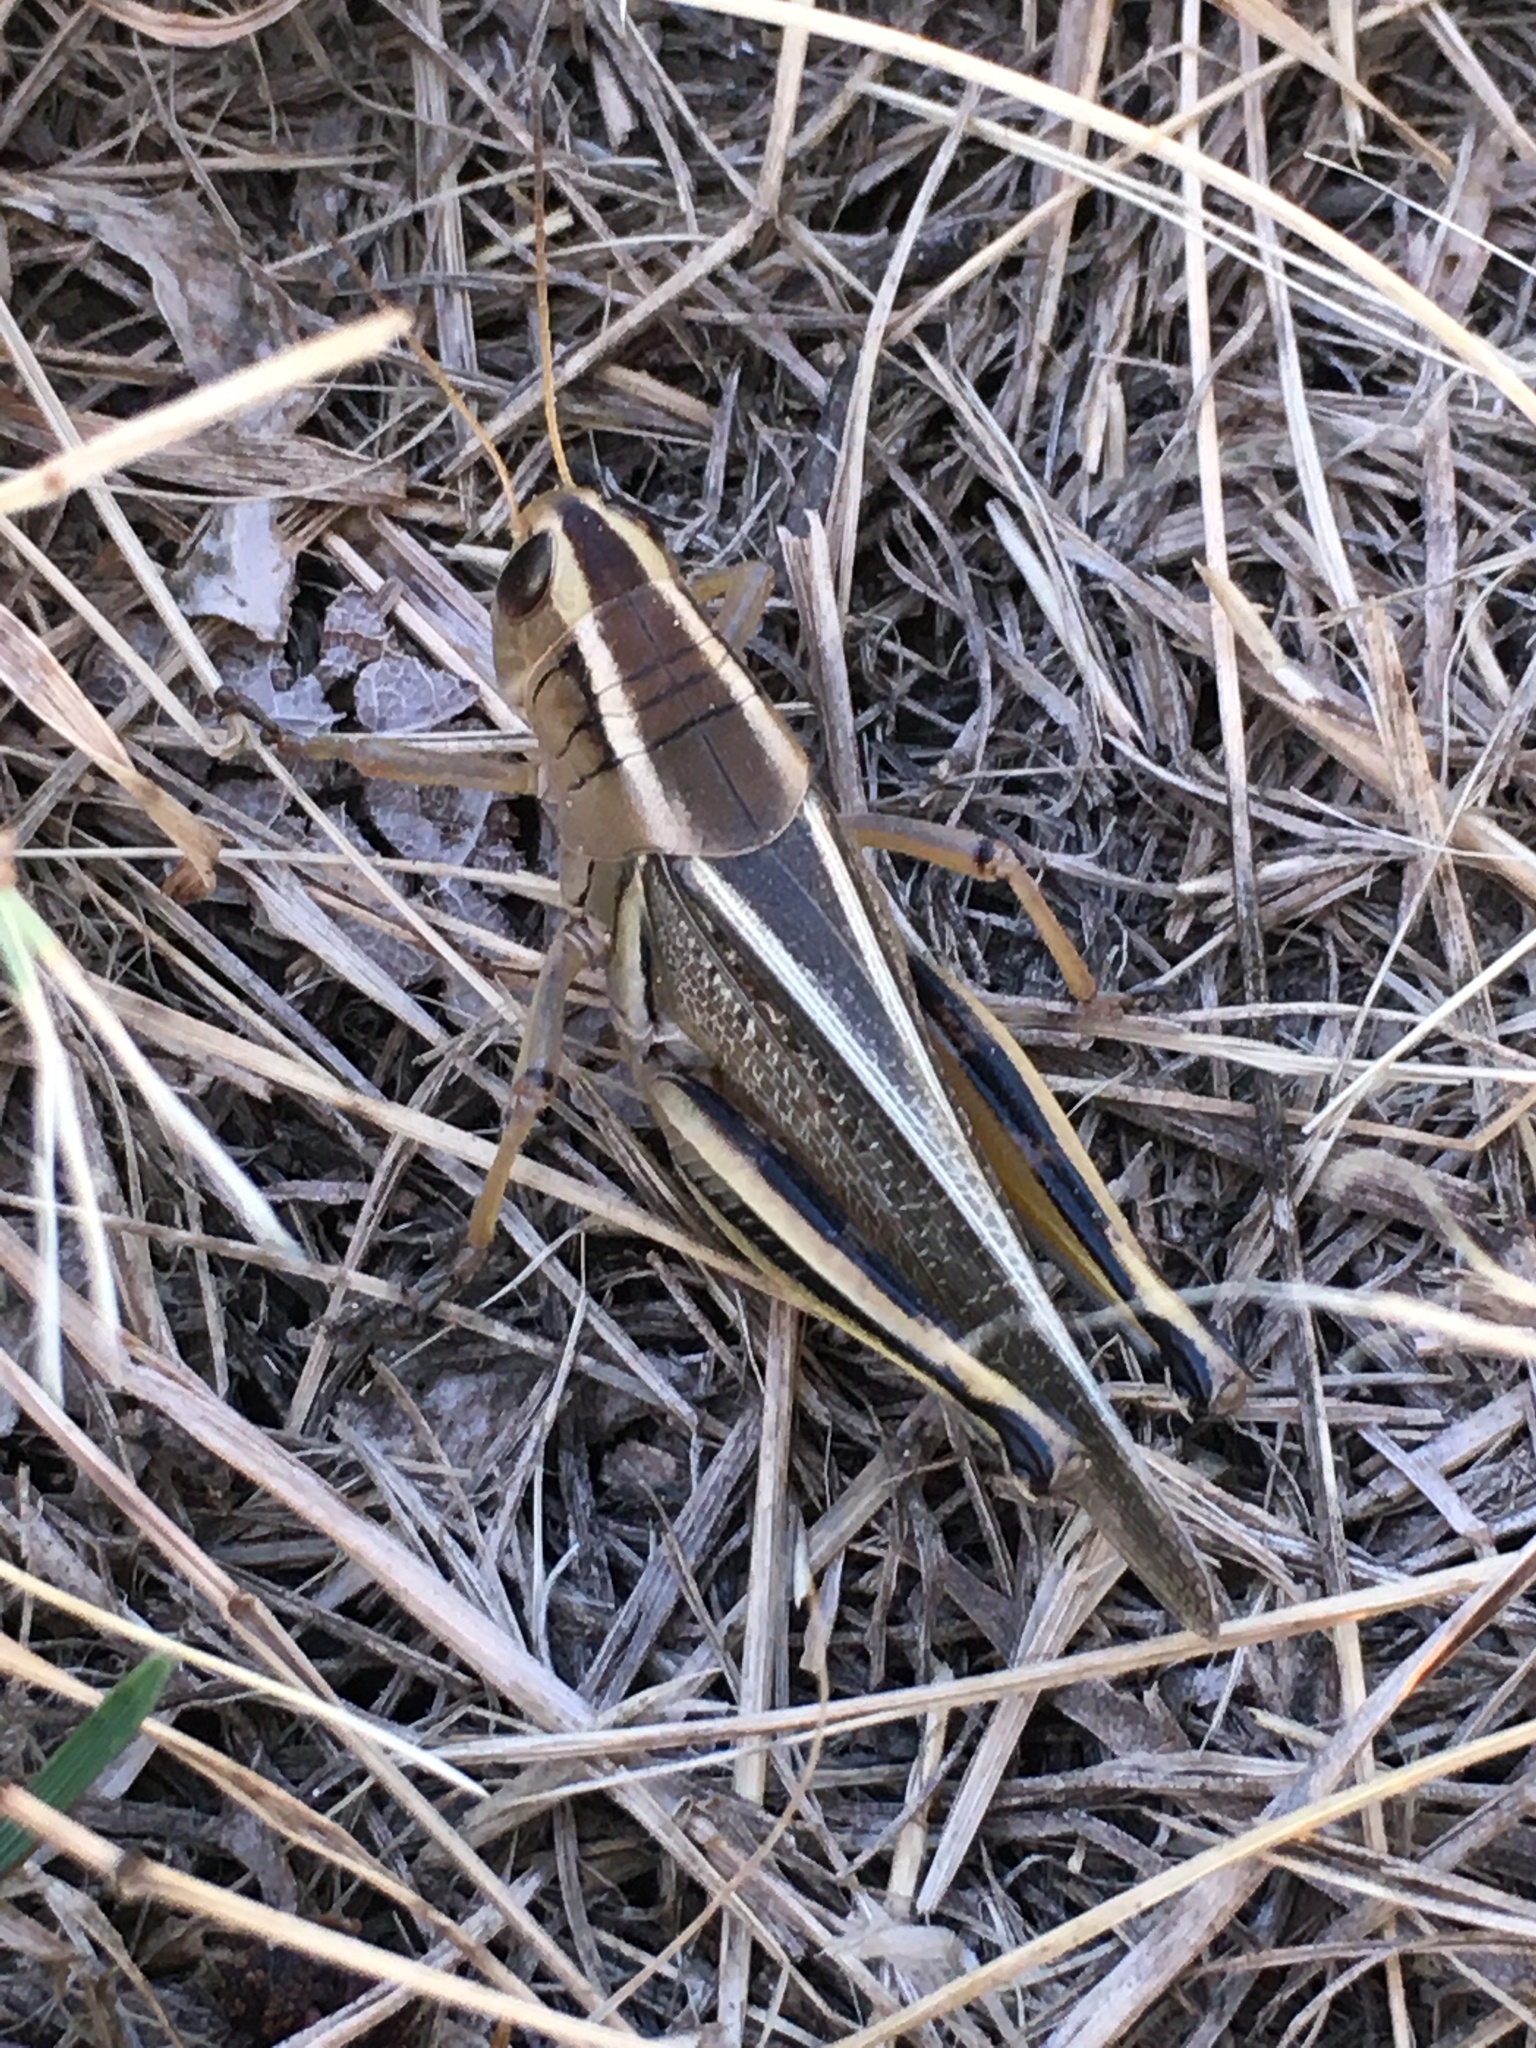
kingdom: Animalia
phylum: Arthropoda
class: Insecta
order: Orthoptera
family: Acrididae
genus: Melanoplus
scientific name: Melanoplus bivittatus
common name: Two-striped grasshopper
